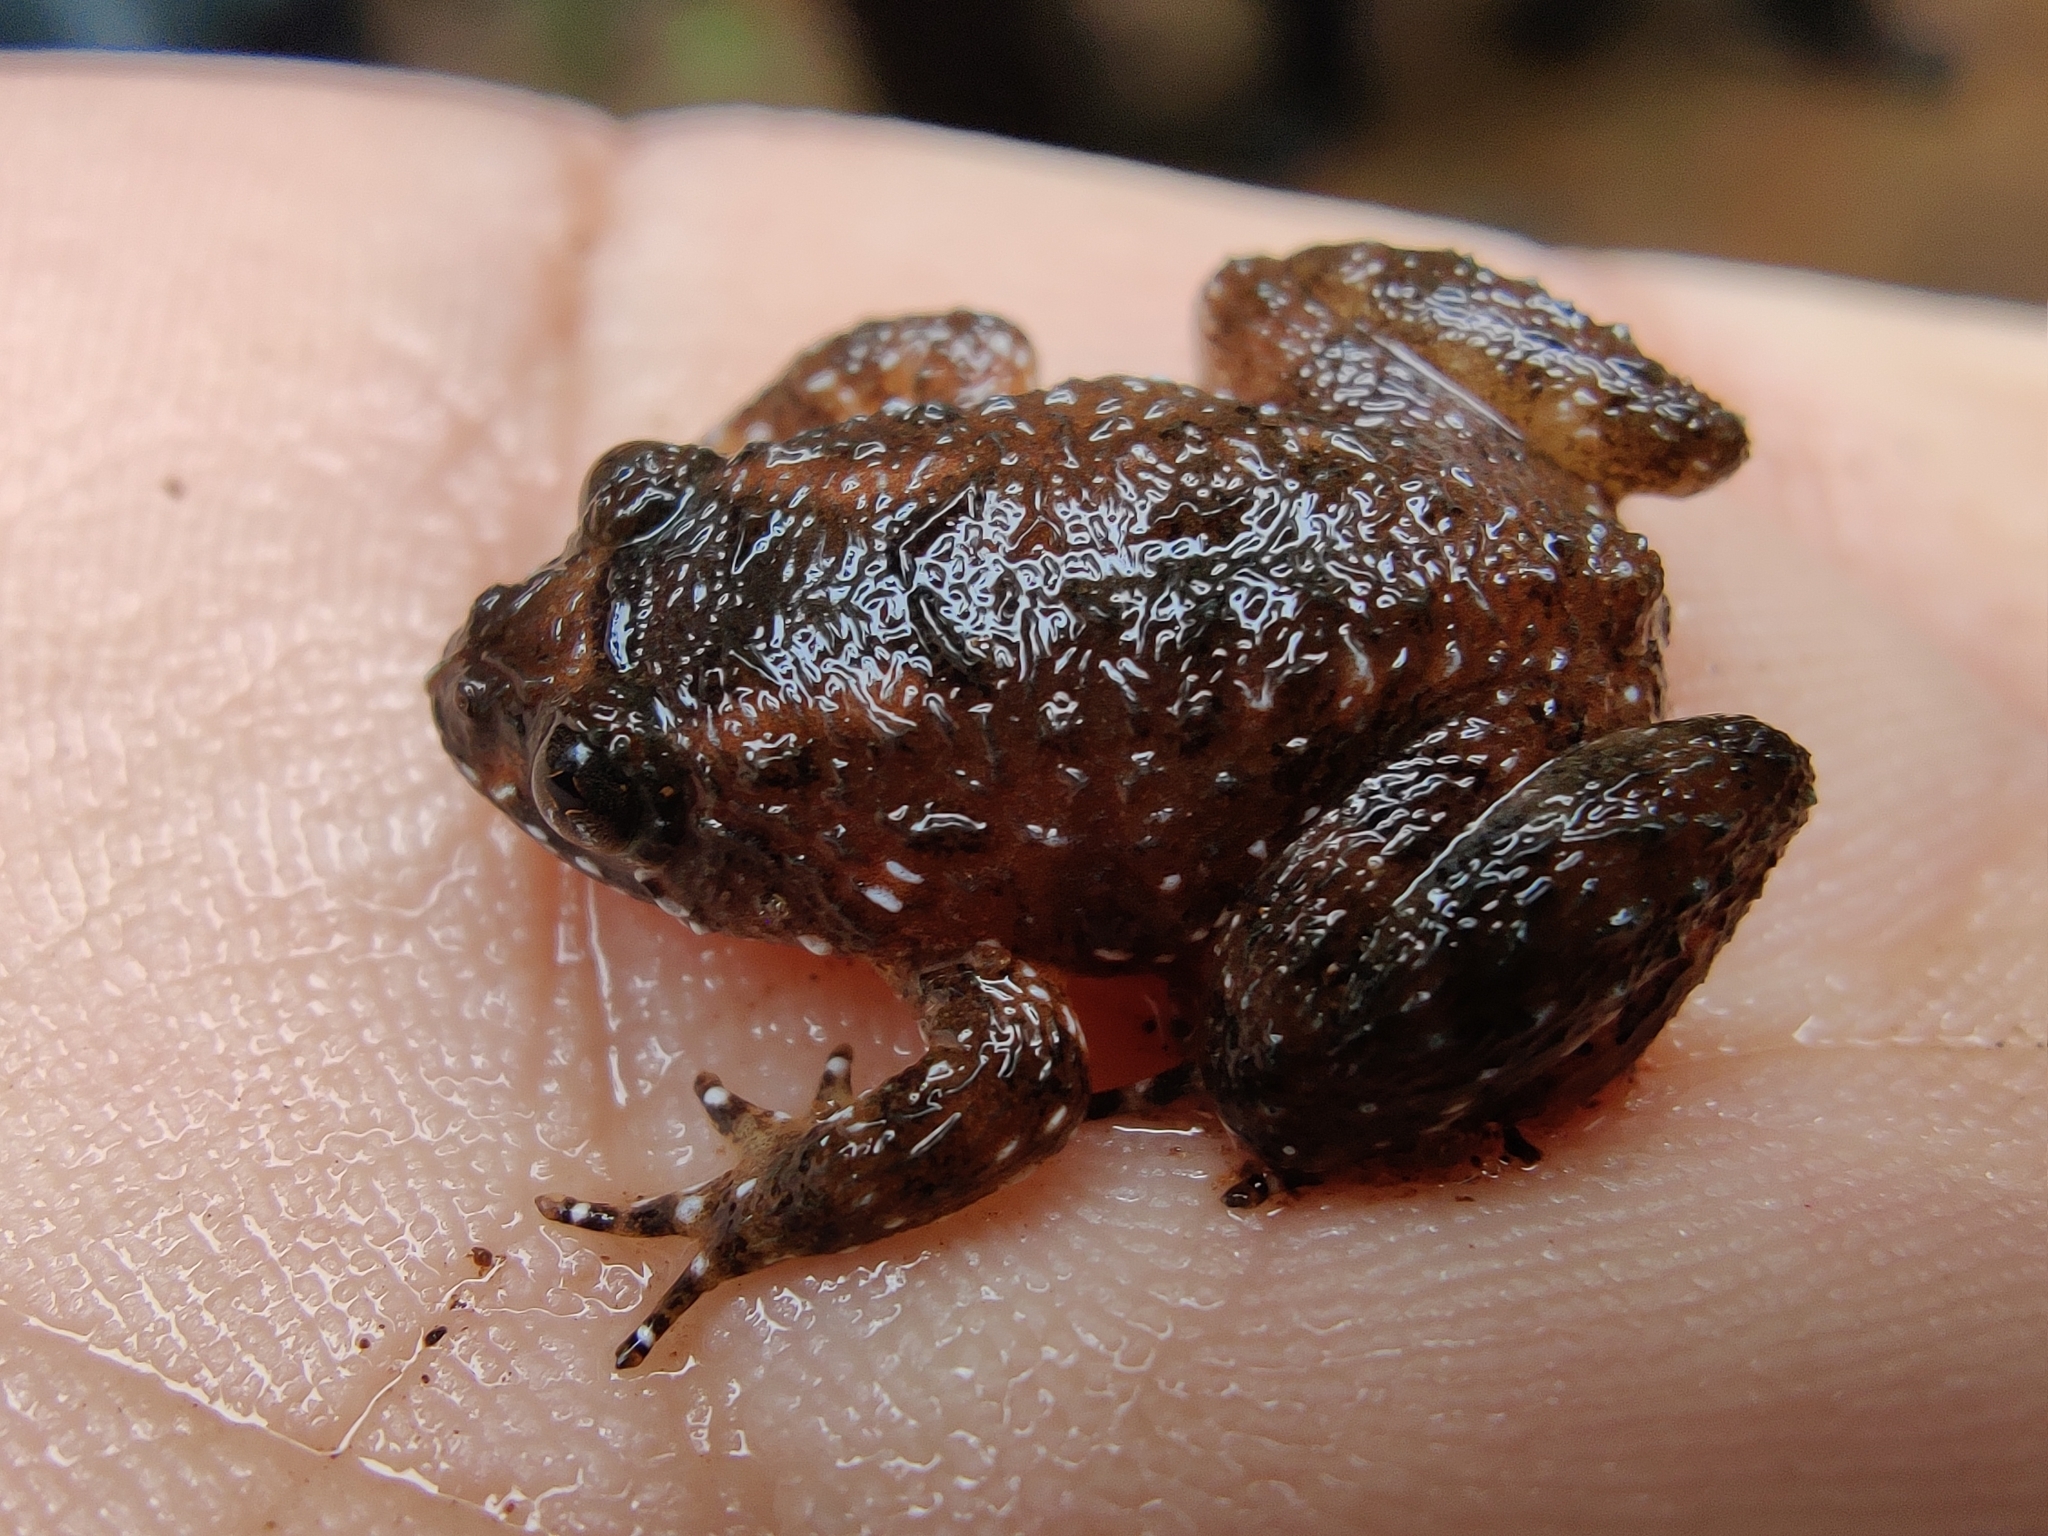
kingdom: Animalia
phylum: Chordata
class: Amphibia
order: Anura
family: Nyctibatrachidae
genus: Nyctibatrachus
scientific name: Nyctibatrachus kempholeyensis
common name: Kempholey night frog
